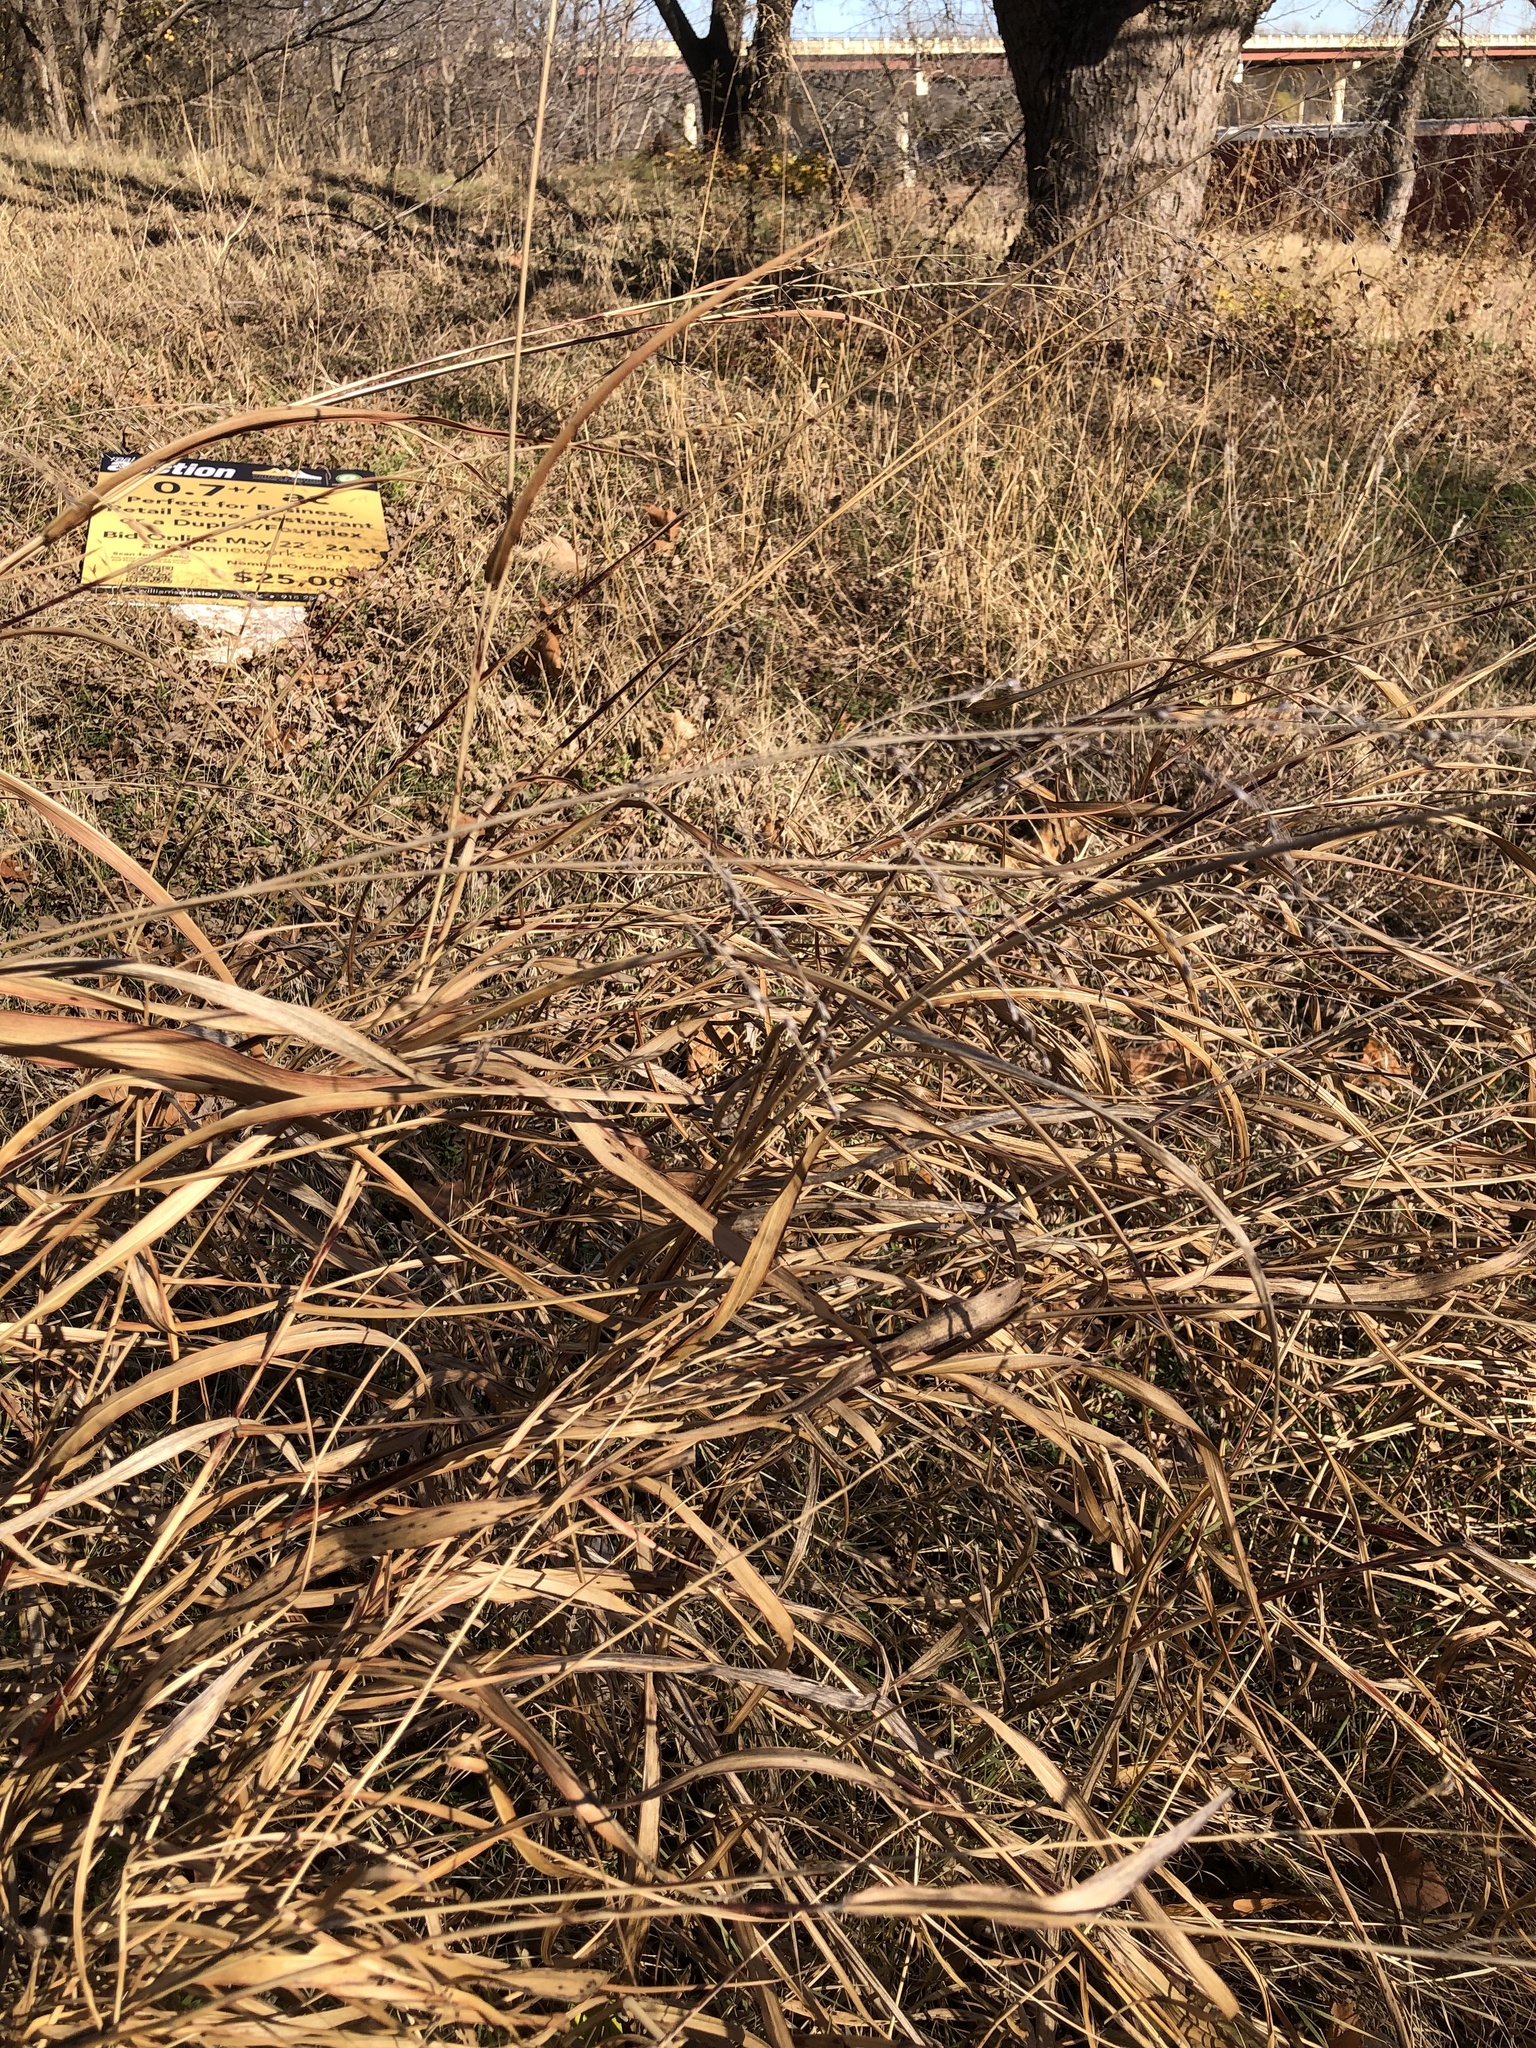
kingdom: Plantae
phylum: Tracheophyta
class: Liliopsida
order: Poales
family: Poaceae
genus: Sorghum
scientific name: Sorghum halepense
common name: Johnson-grass
